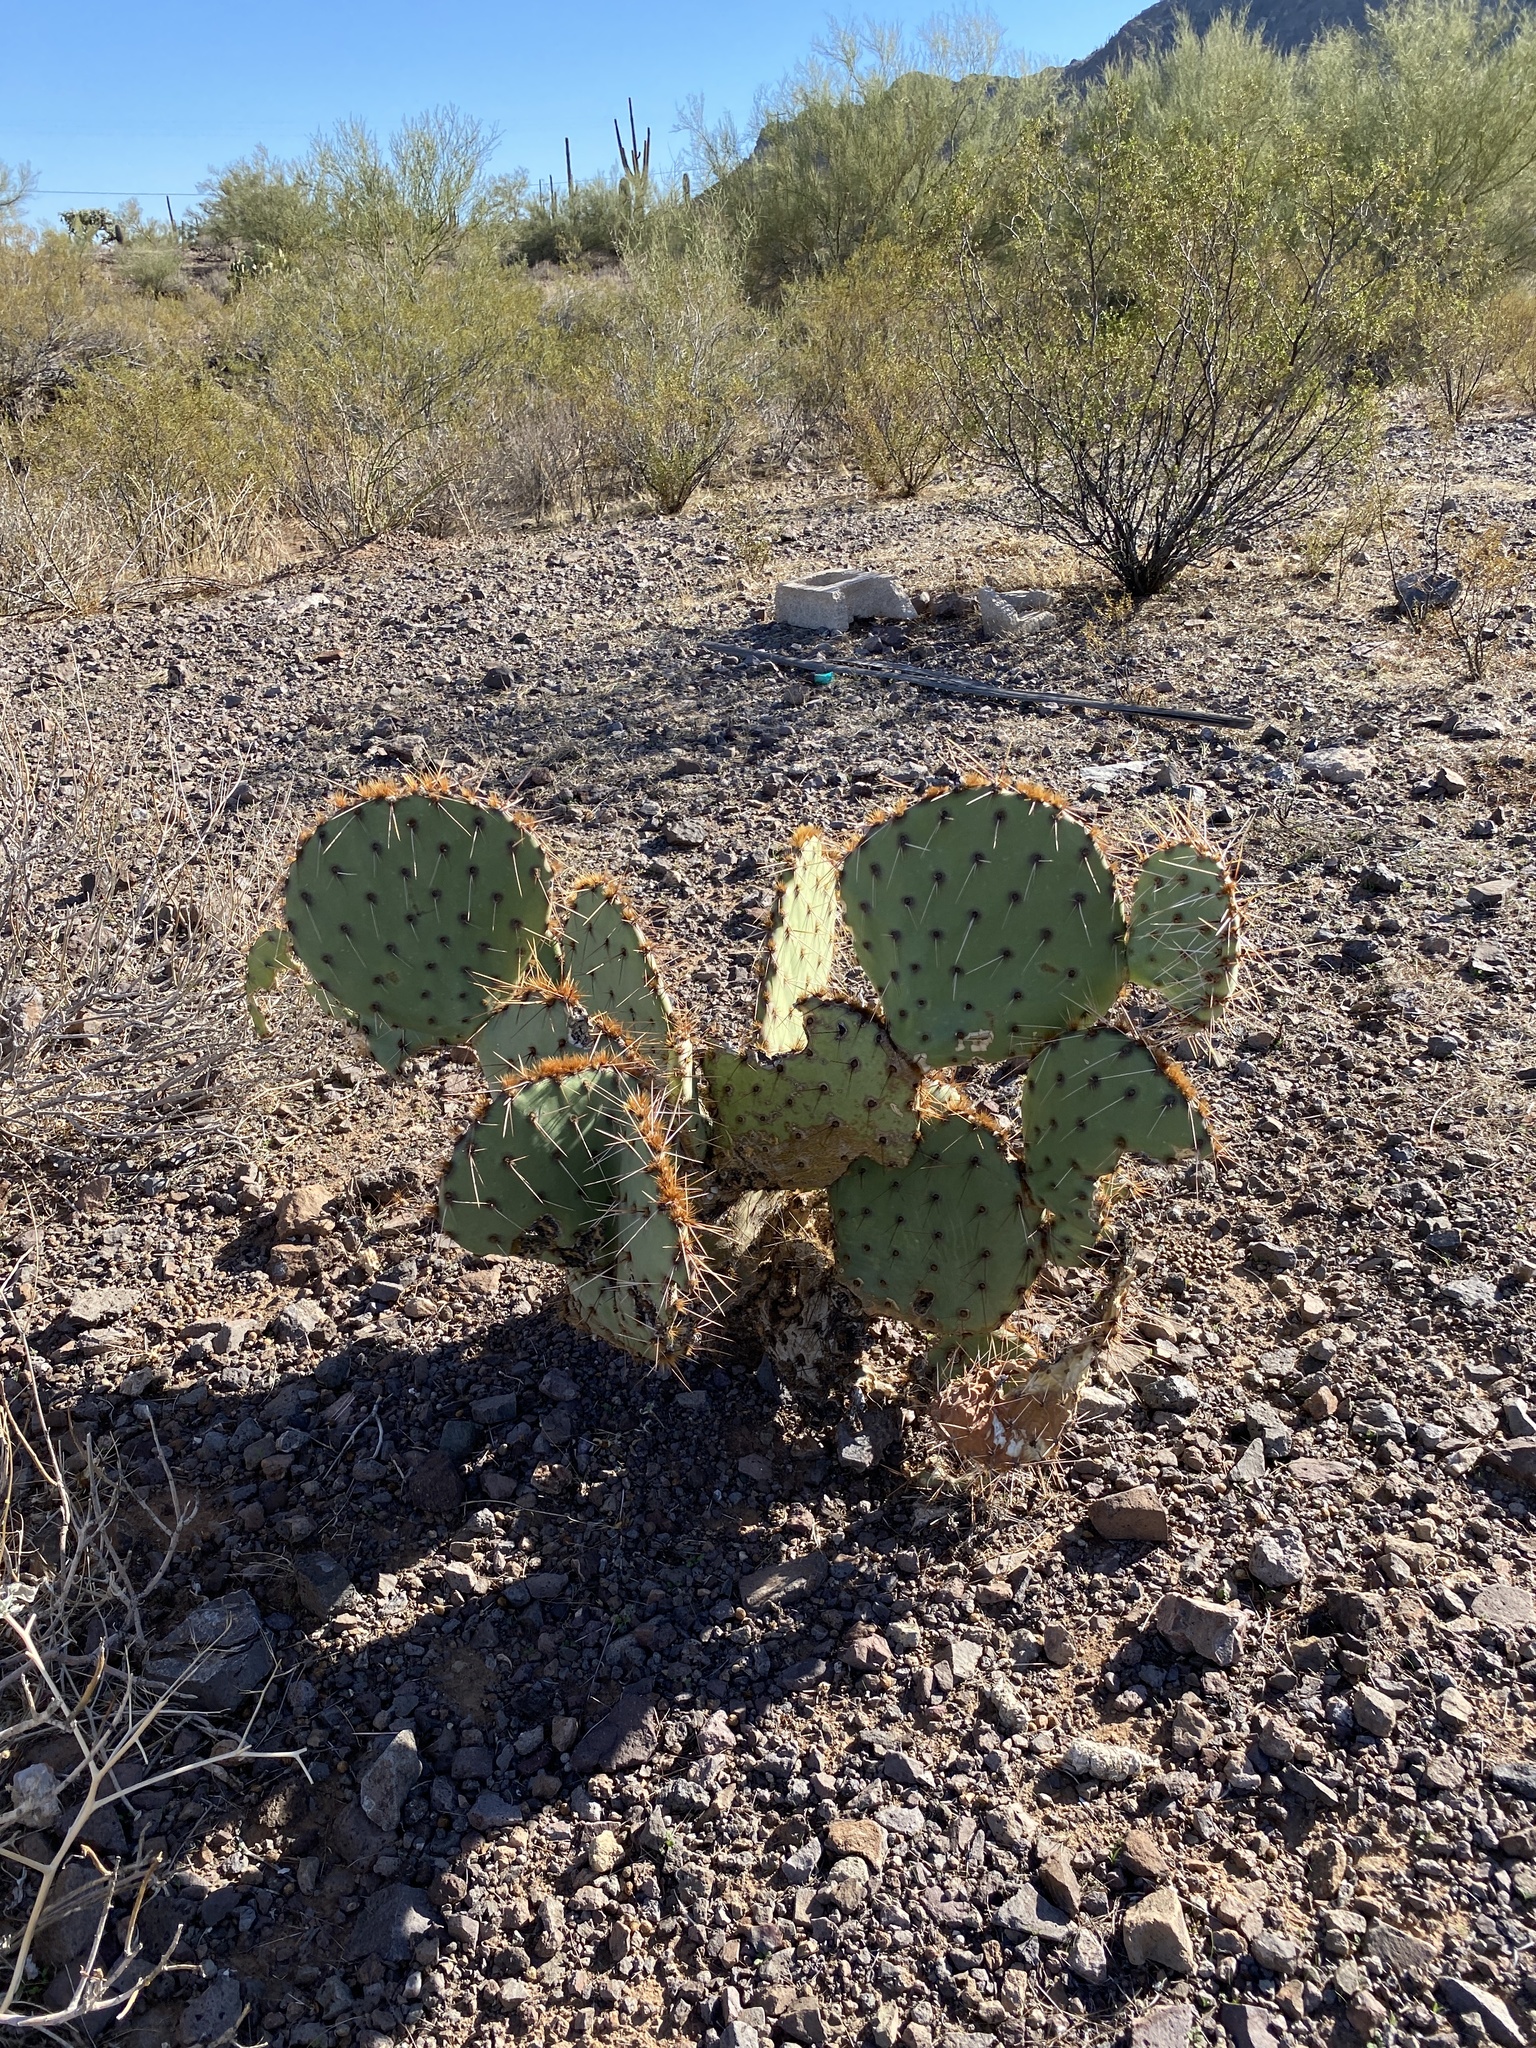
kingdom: Plantae
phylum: Tracheophyta
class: Magnoliopsida
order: Caryophyllales
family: Cactaceae
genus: Opuntia
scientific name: Opuntia engelmannii
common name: Cactus-apple
